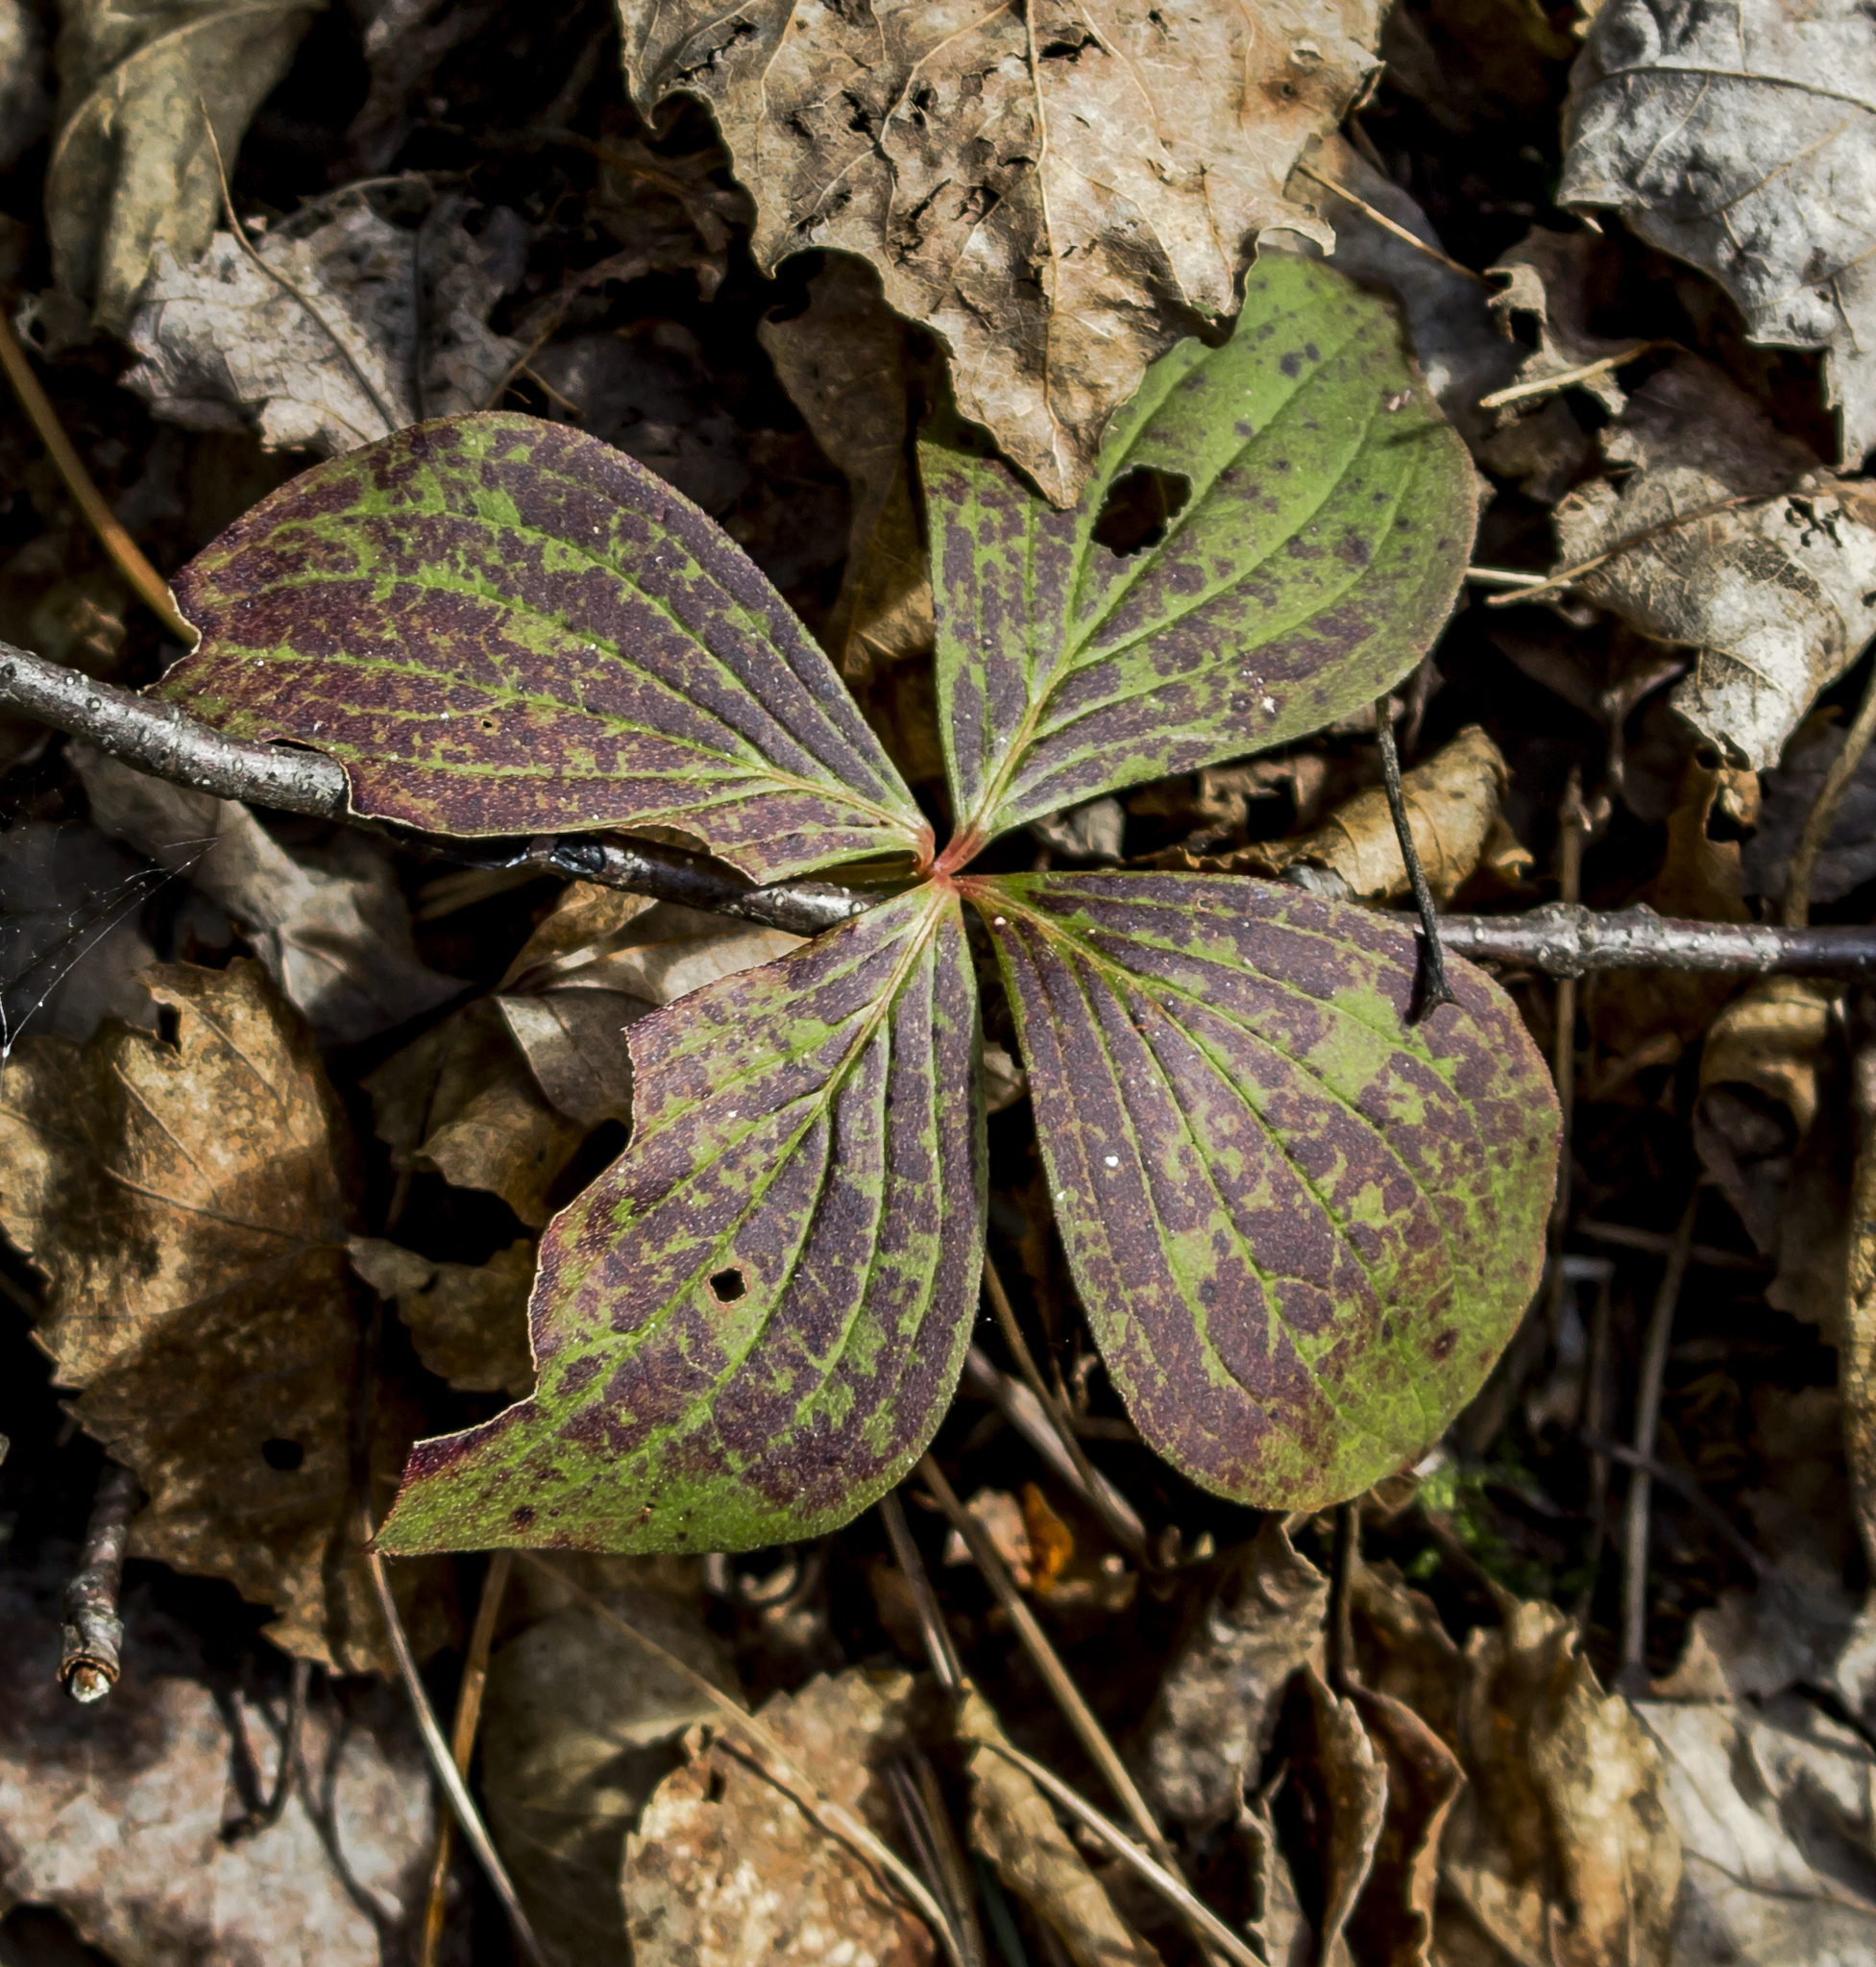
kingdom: Plantae
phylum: Tracheophyta
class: Magnoliopsida
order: Cornales
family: Cornaceae
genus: Cornus
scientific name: Cornus canadensis
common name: Creeping dogwood
